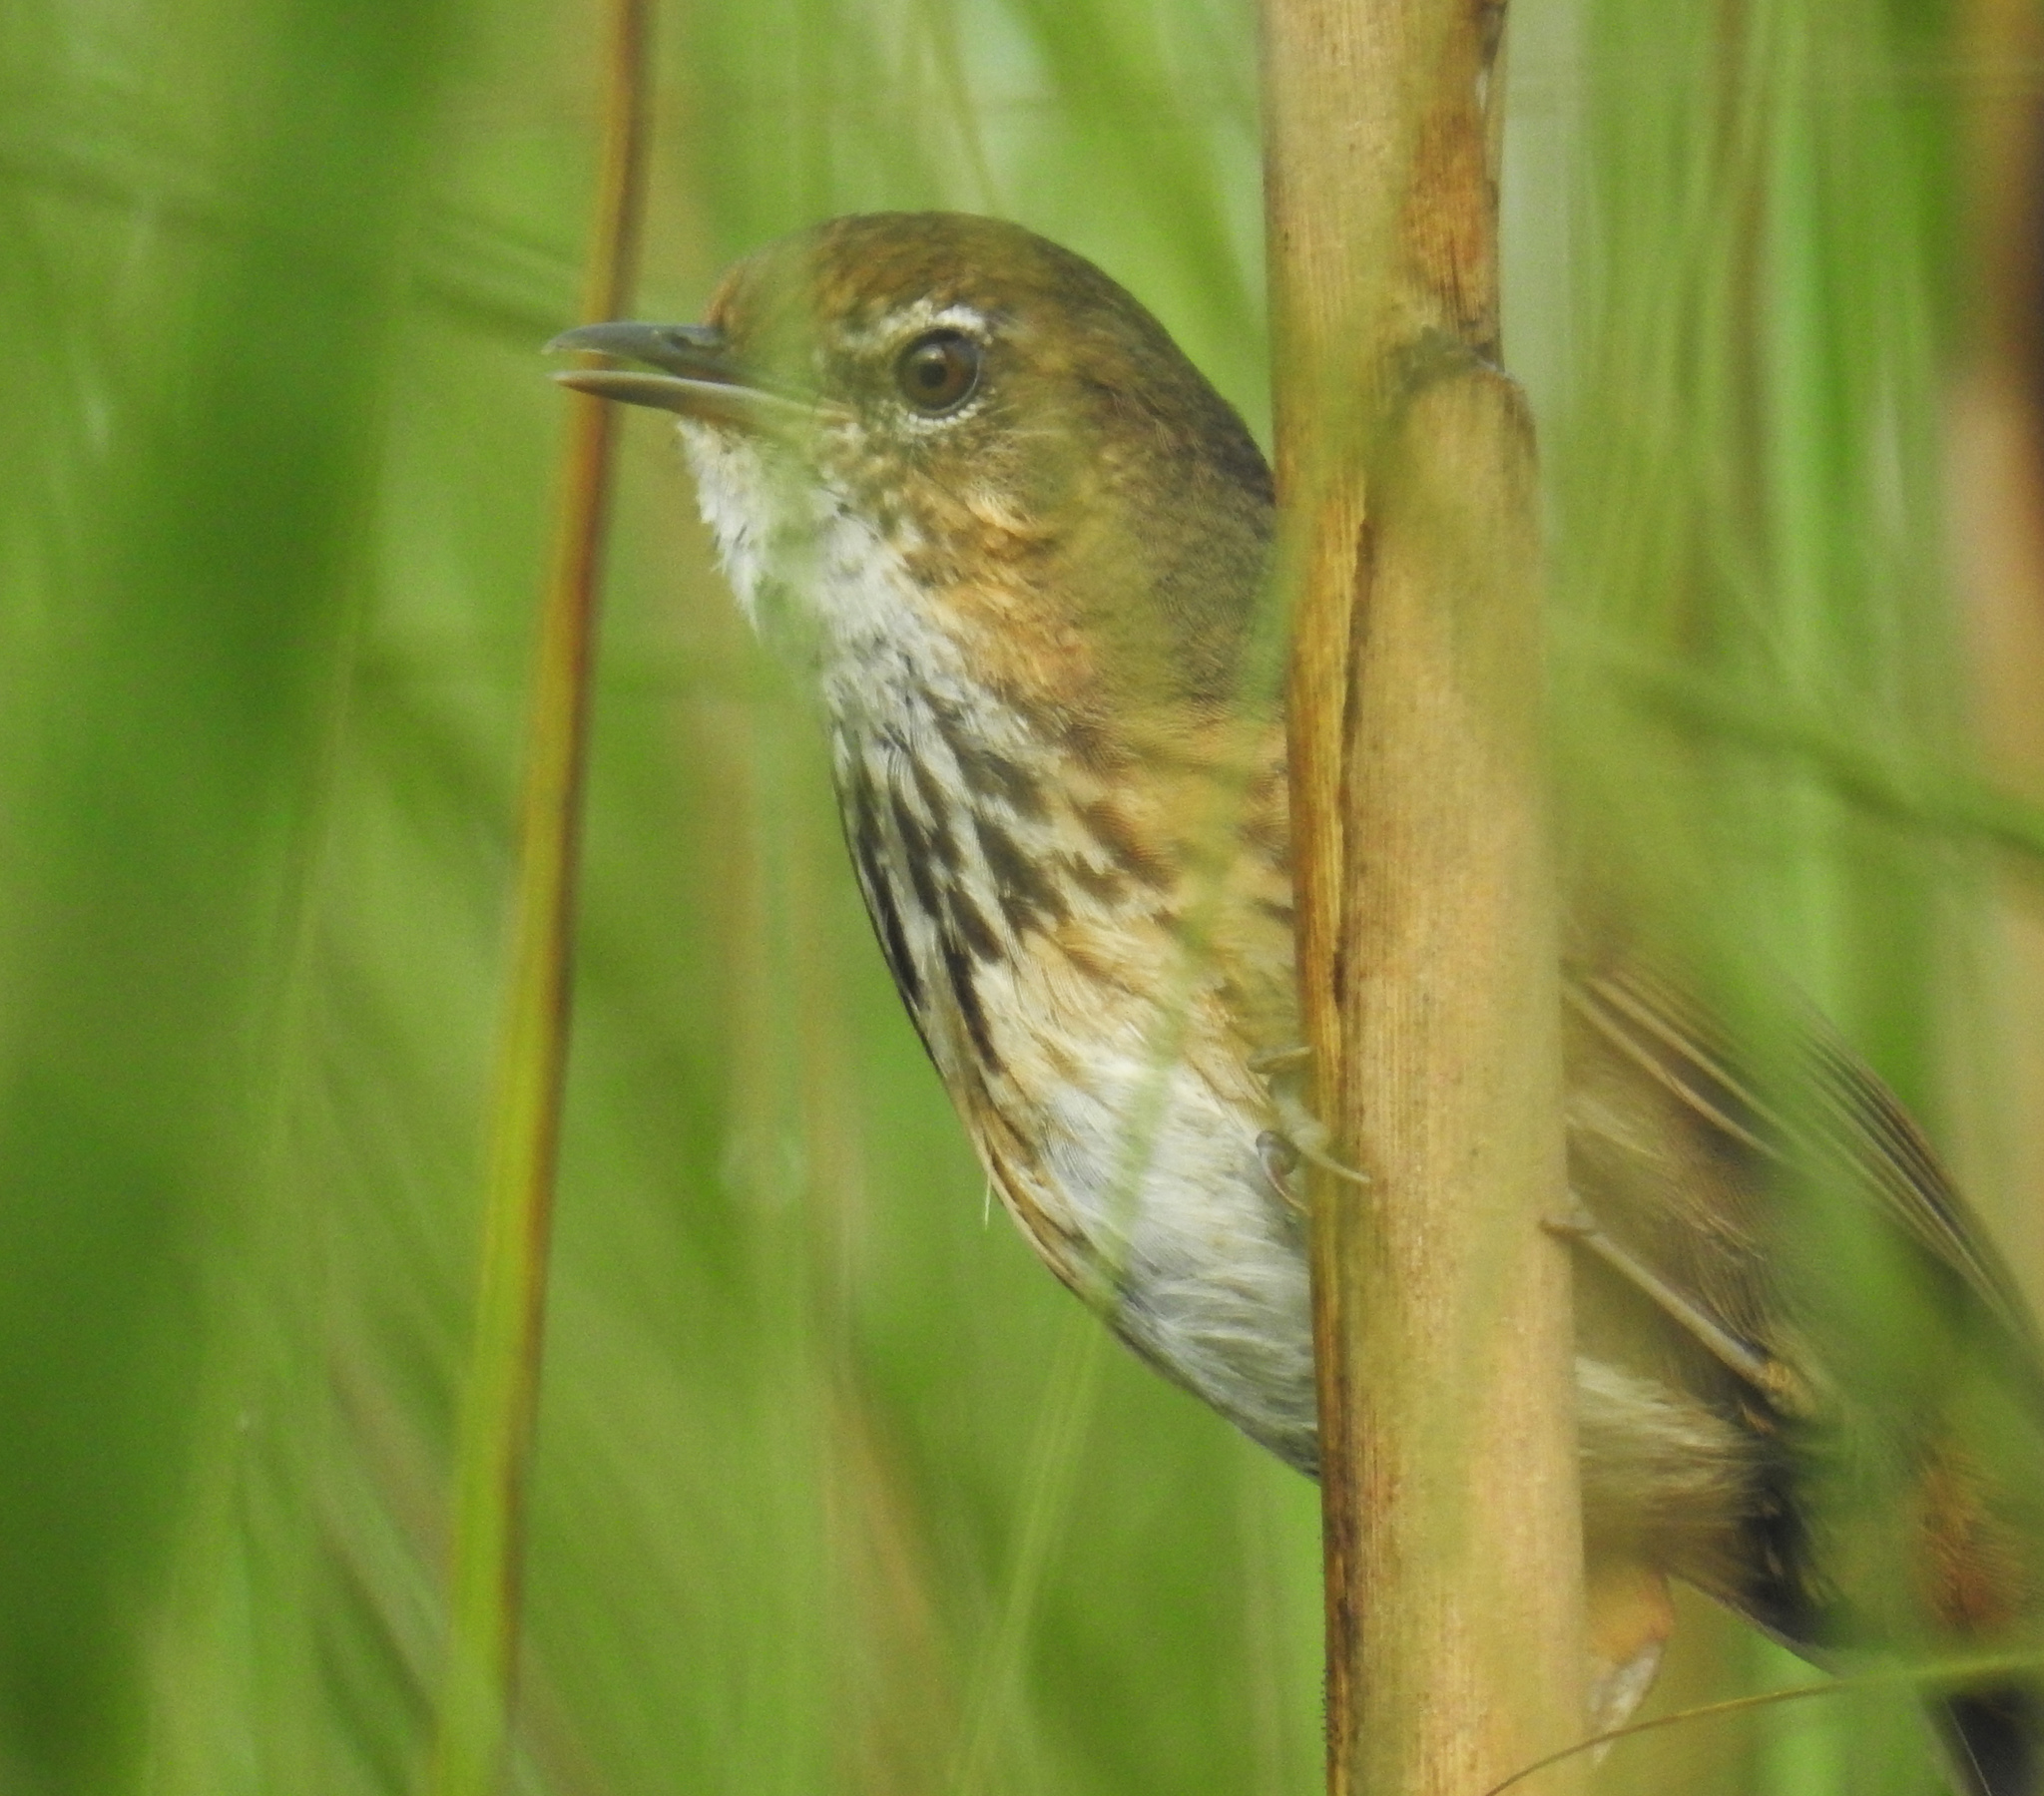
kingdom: Animalia
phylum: Chordata
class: Aves
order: Passeriformes
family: Pellorneidae
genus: Pellorneum
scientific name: Pellorneum palustre
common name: Marsh babbler
